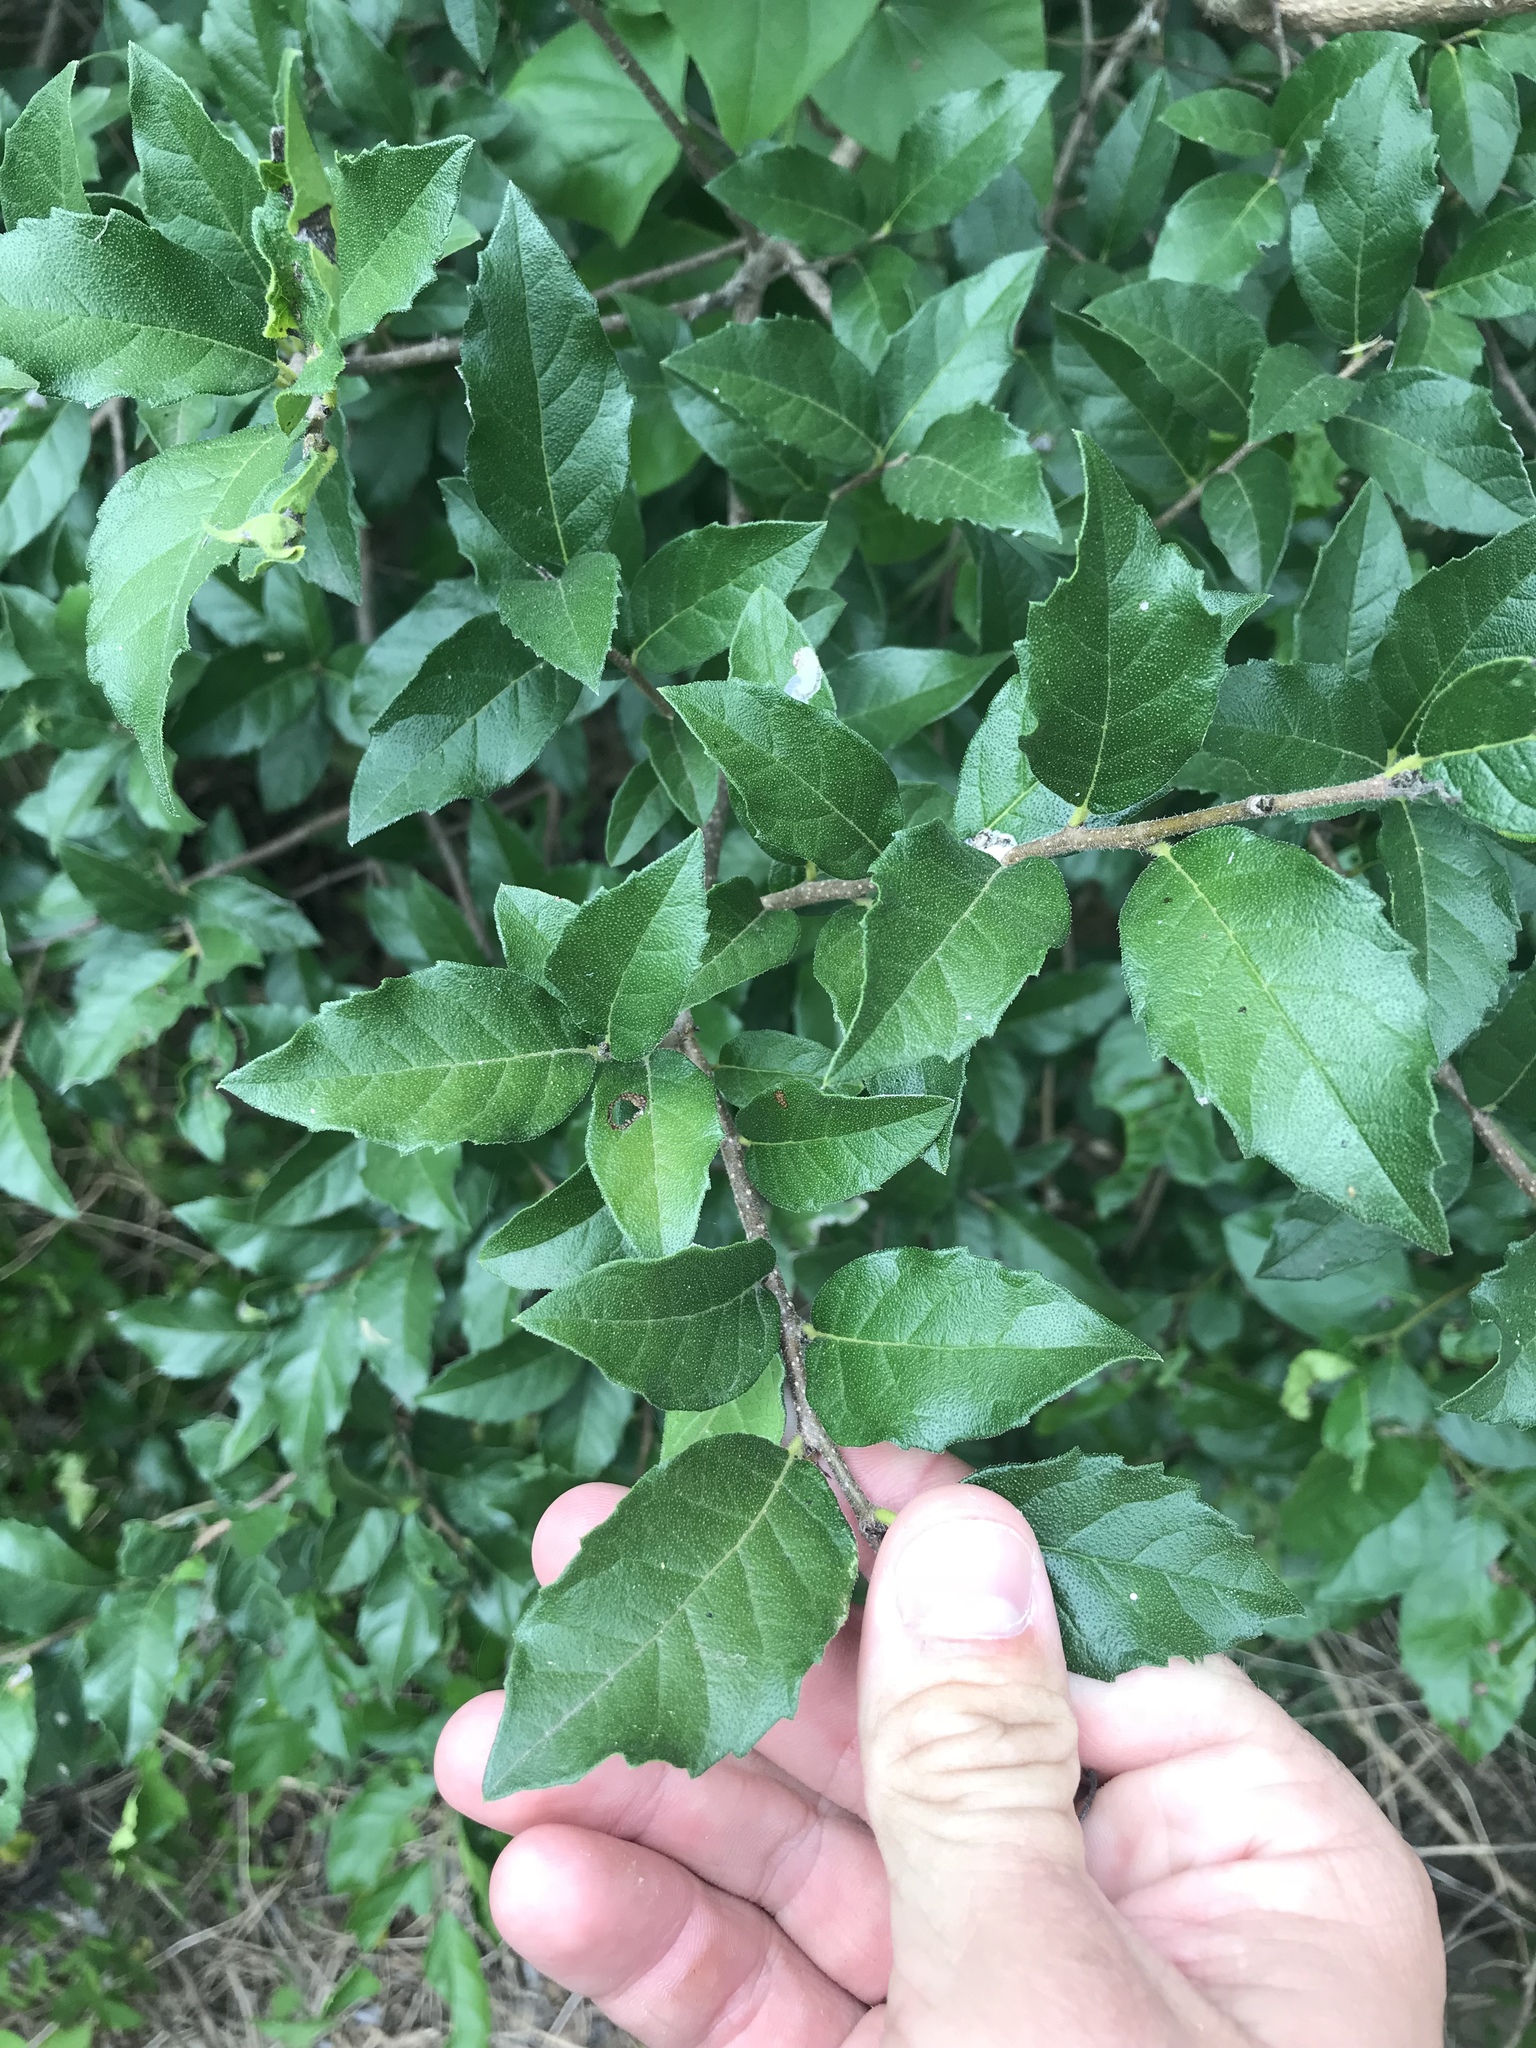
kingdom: Plantae
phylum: Tracheophyta
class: Magnoliopsida
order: Boraginales
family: Ehretiaceae
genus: Ehretia
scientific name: Ehretia anacua
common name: Sugarberry
